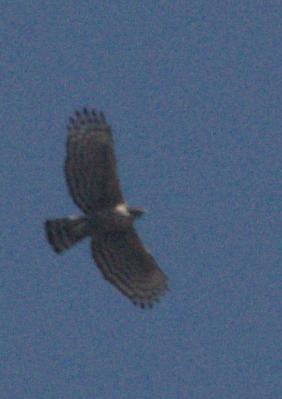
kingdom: Animalia
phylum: Chordata
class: Aves
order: Accipitriformes
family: Accipitridae
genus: Nisaetus
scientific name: Nisaetus nipalensis
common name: Mountain hawk-eagle
